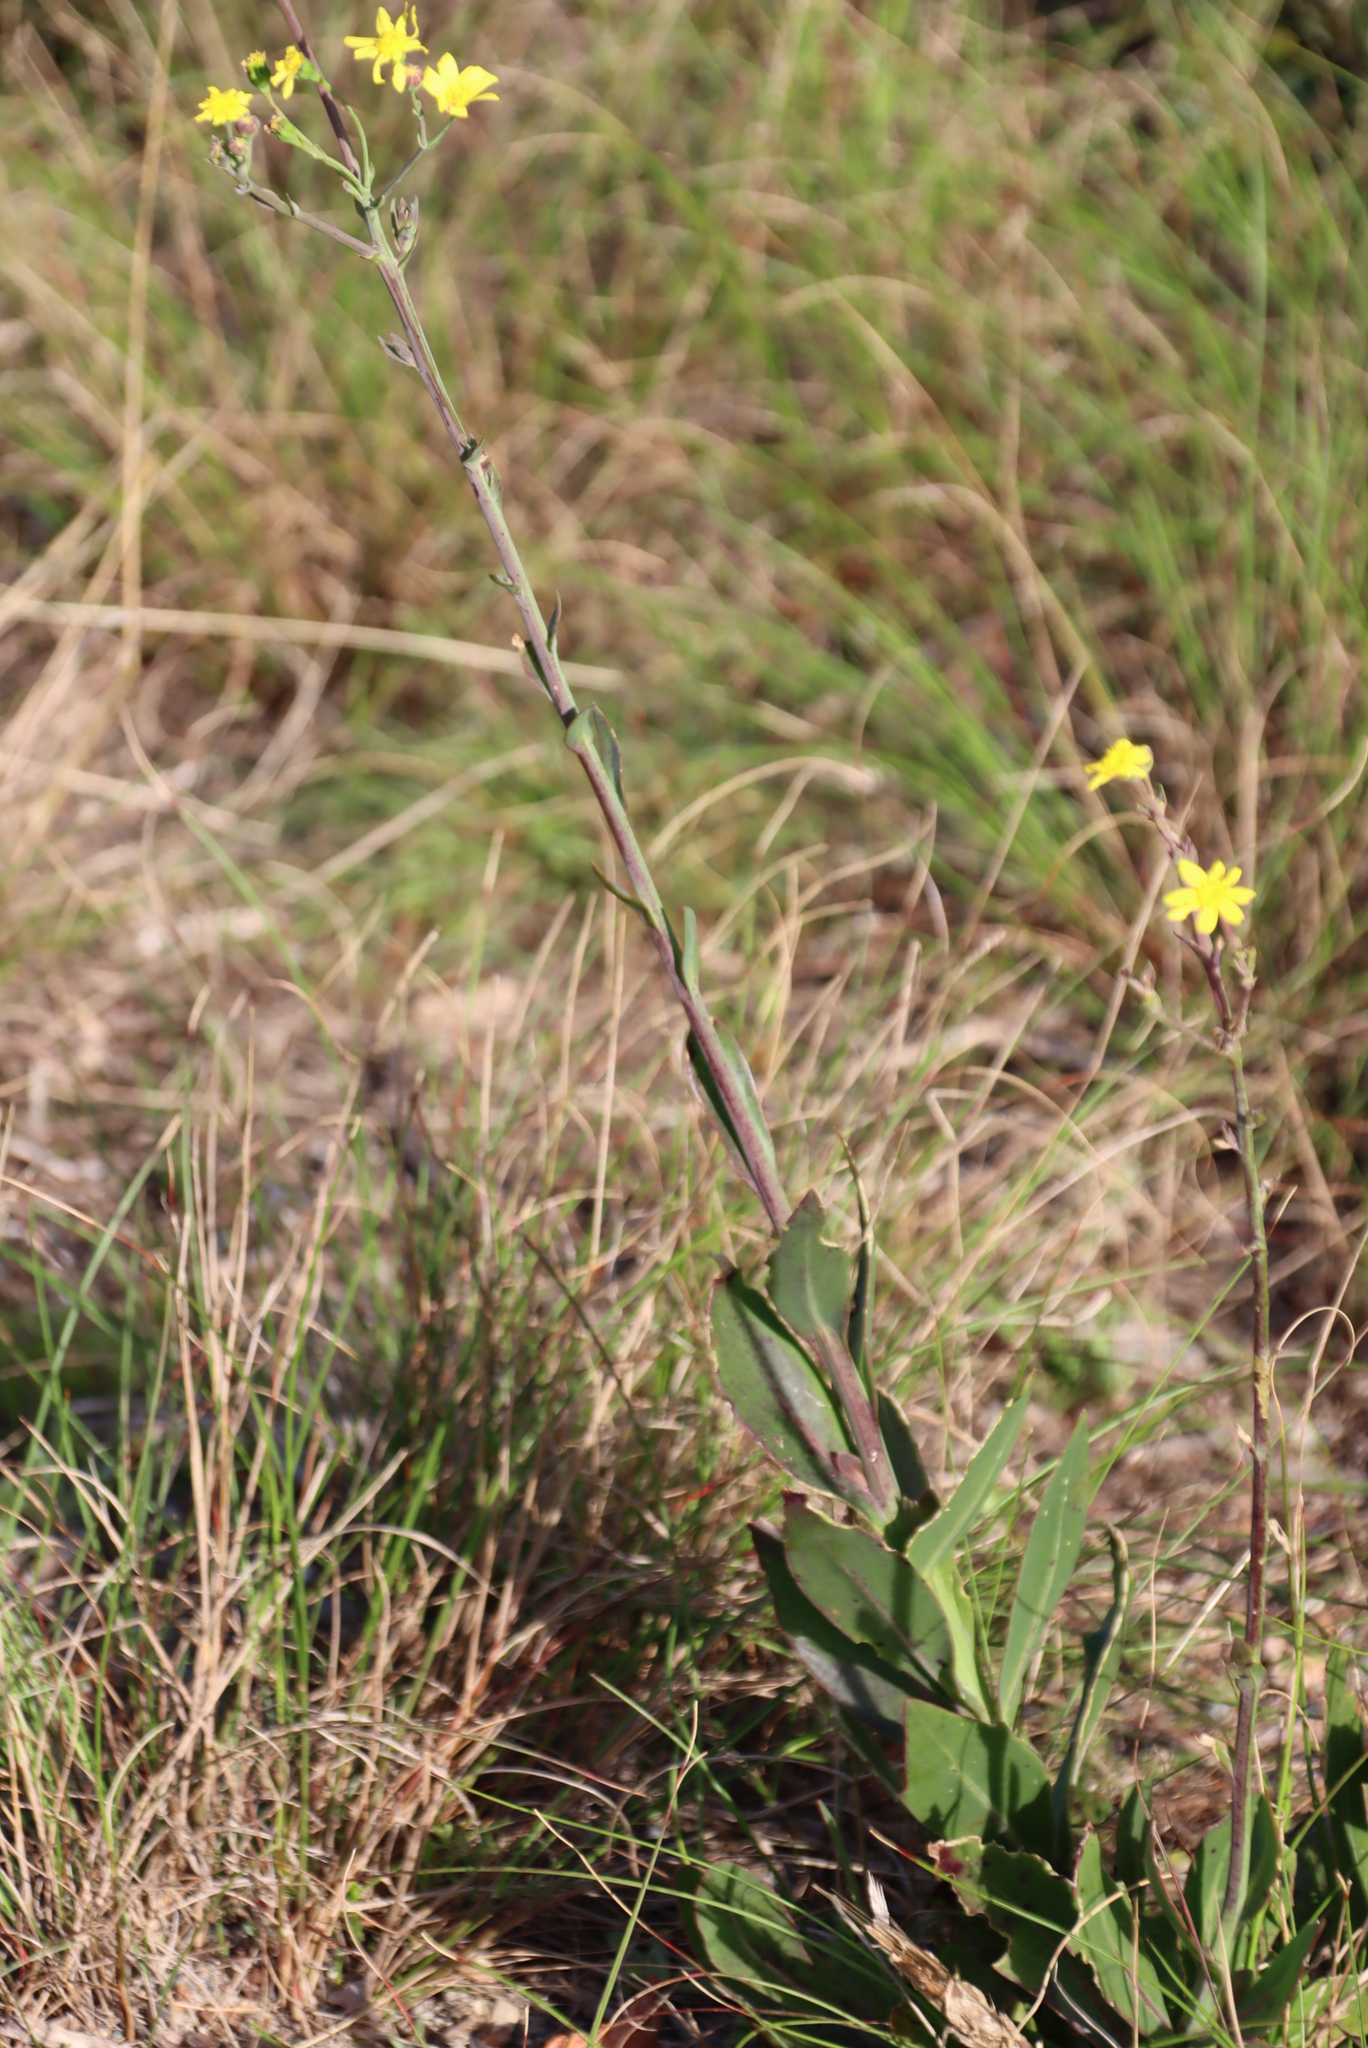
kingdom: Plantae
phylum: Tracheophyta
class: Magnoliopsida
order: Asterales
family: Asteraceae
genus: Othonna
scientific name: Othonna quinquedentata
